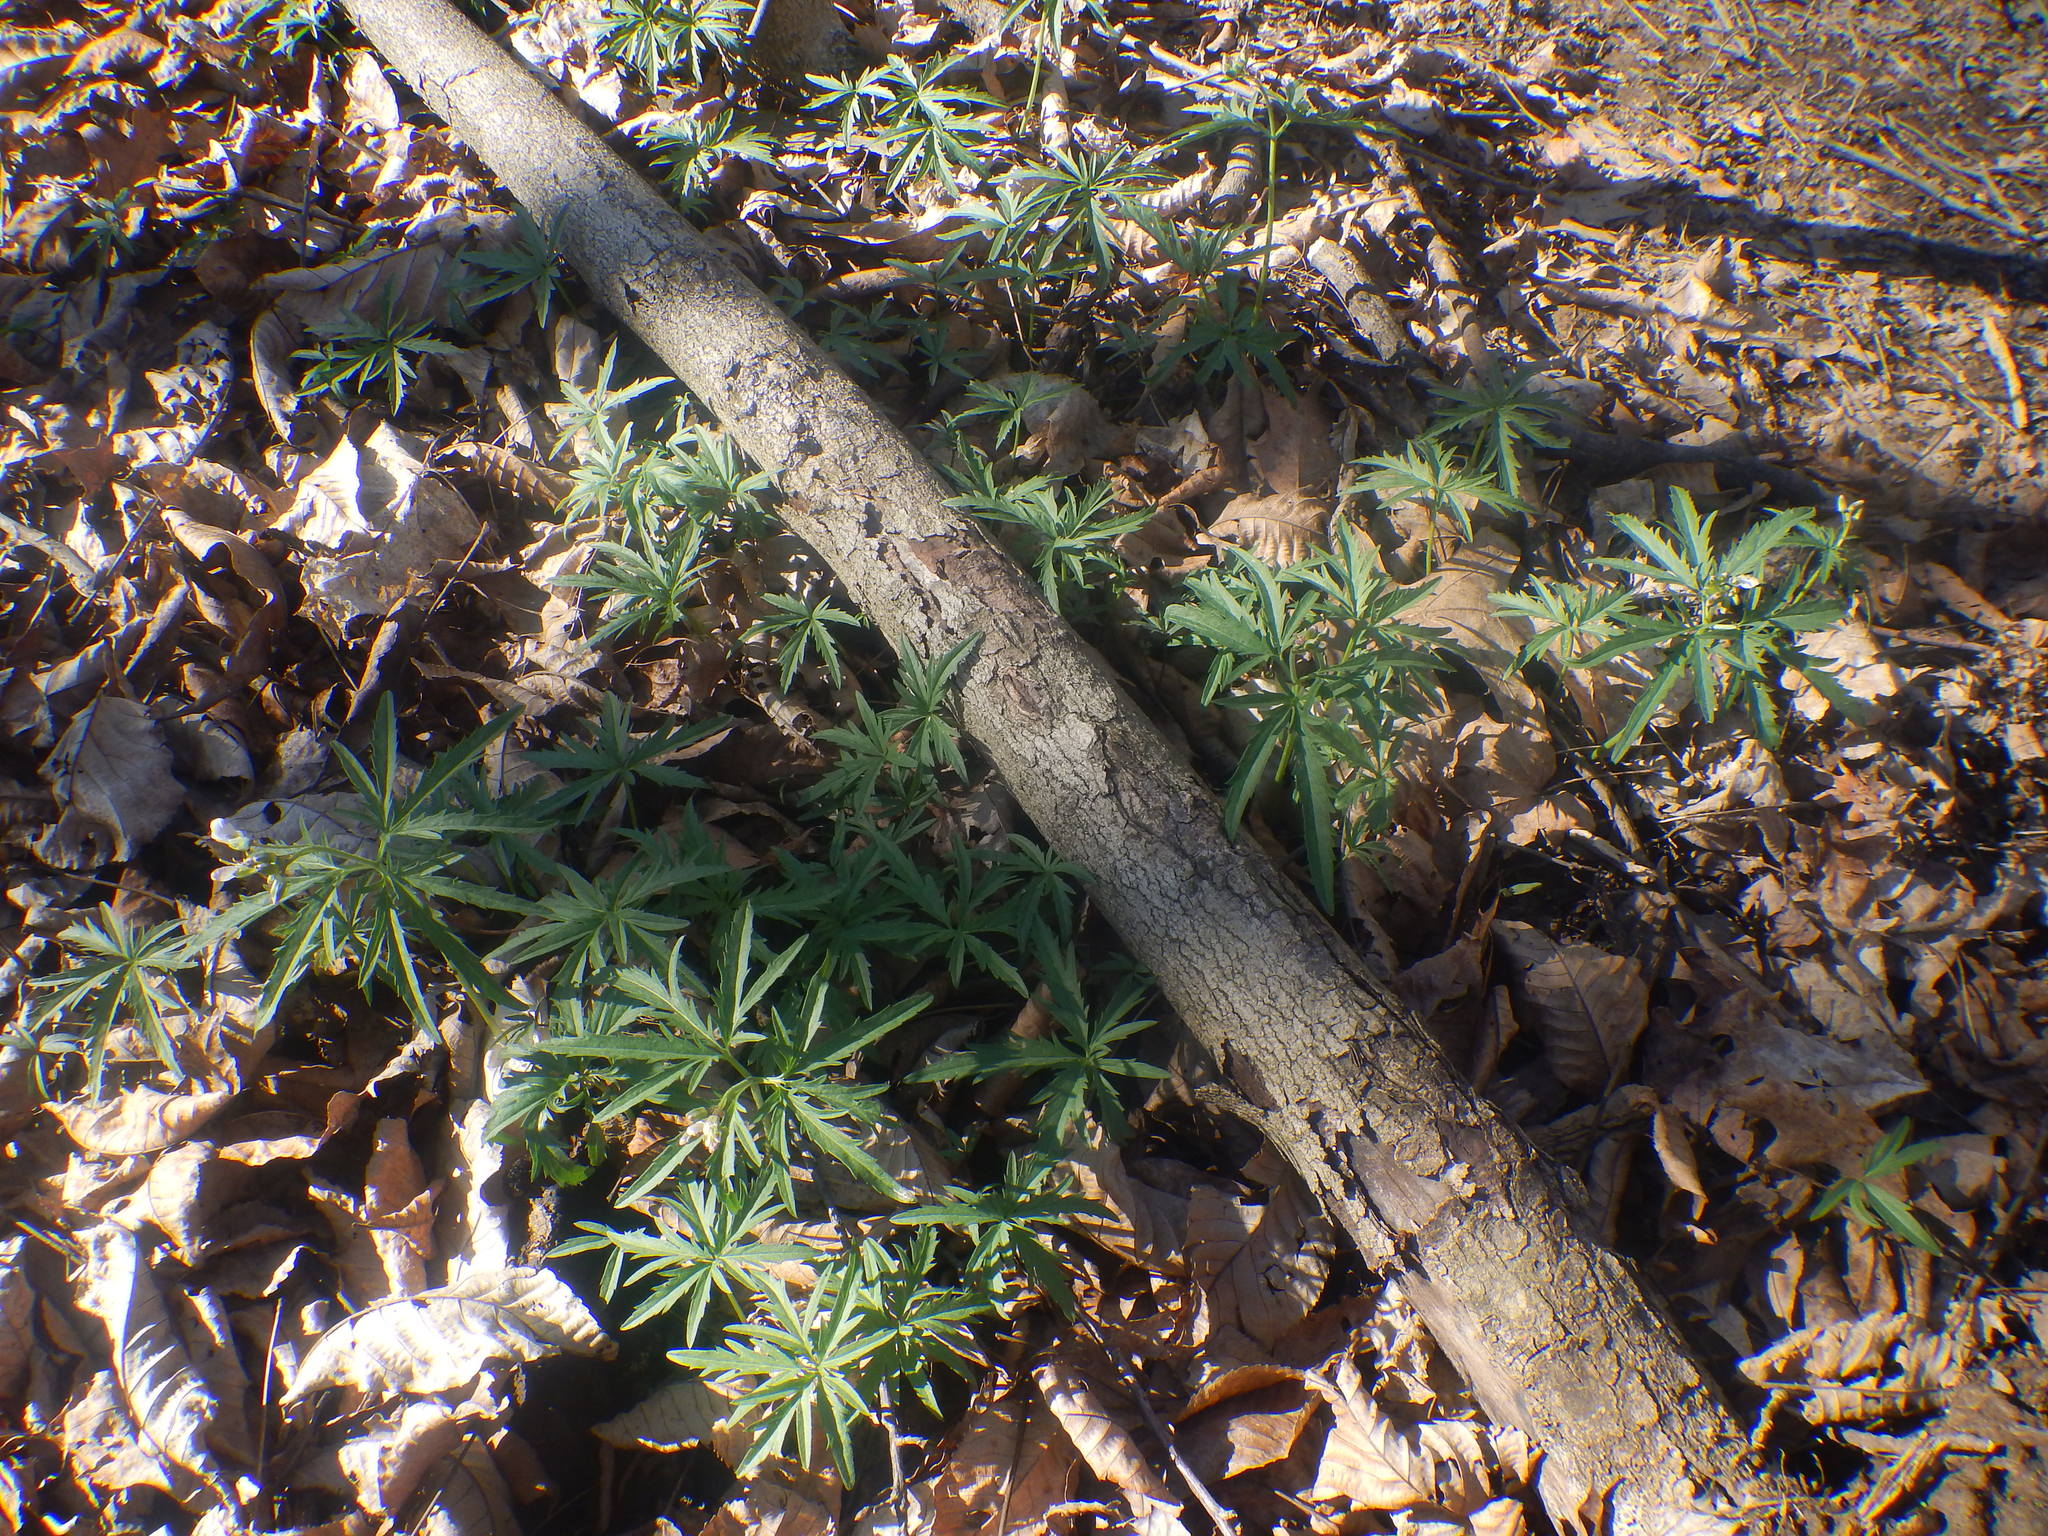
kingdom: Plantae
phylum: Tracheophyta
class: Magnoliopsida
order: Brassicales
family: Brassicaceae
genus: Cardamine
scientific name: Cardamine concatenata
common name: Cut-leaf toothcup
